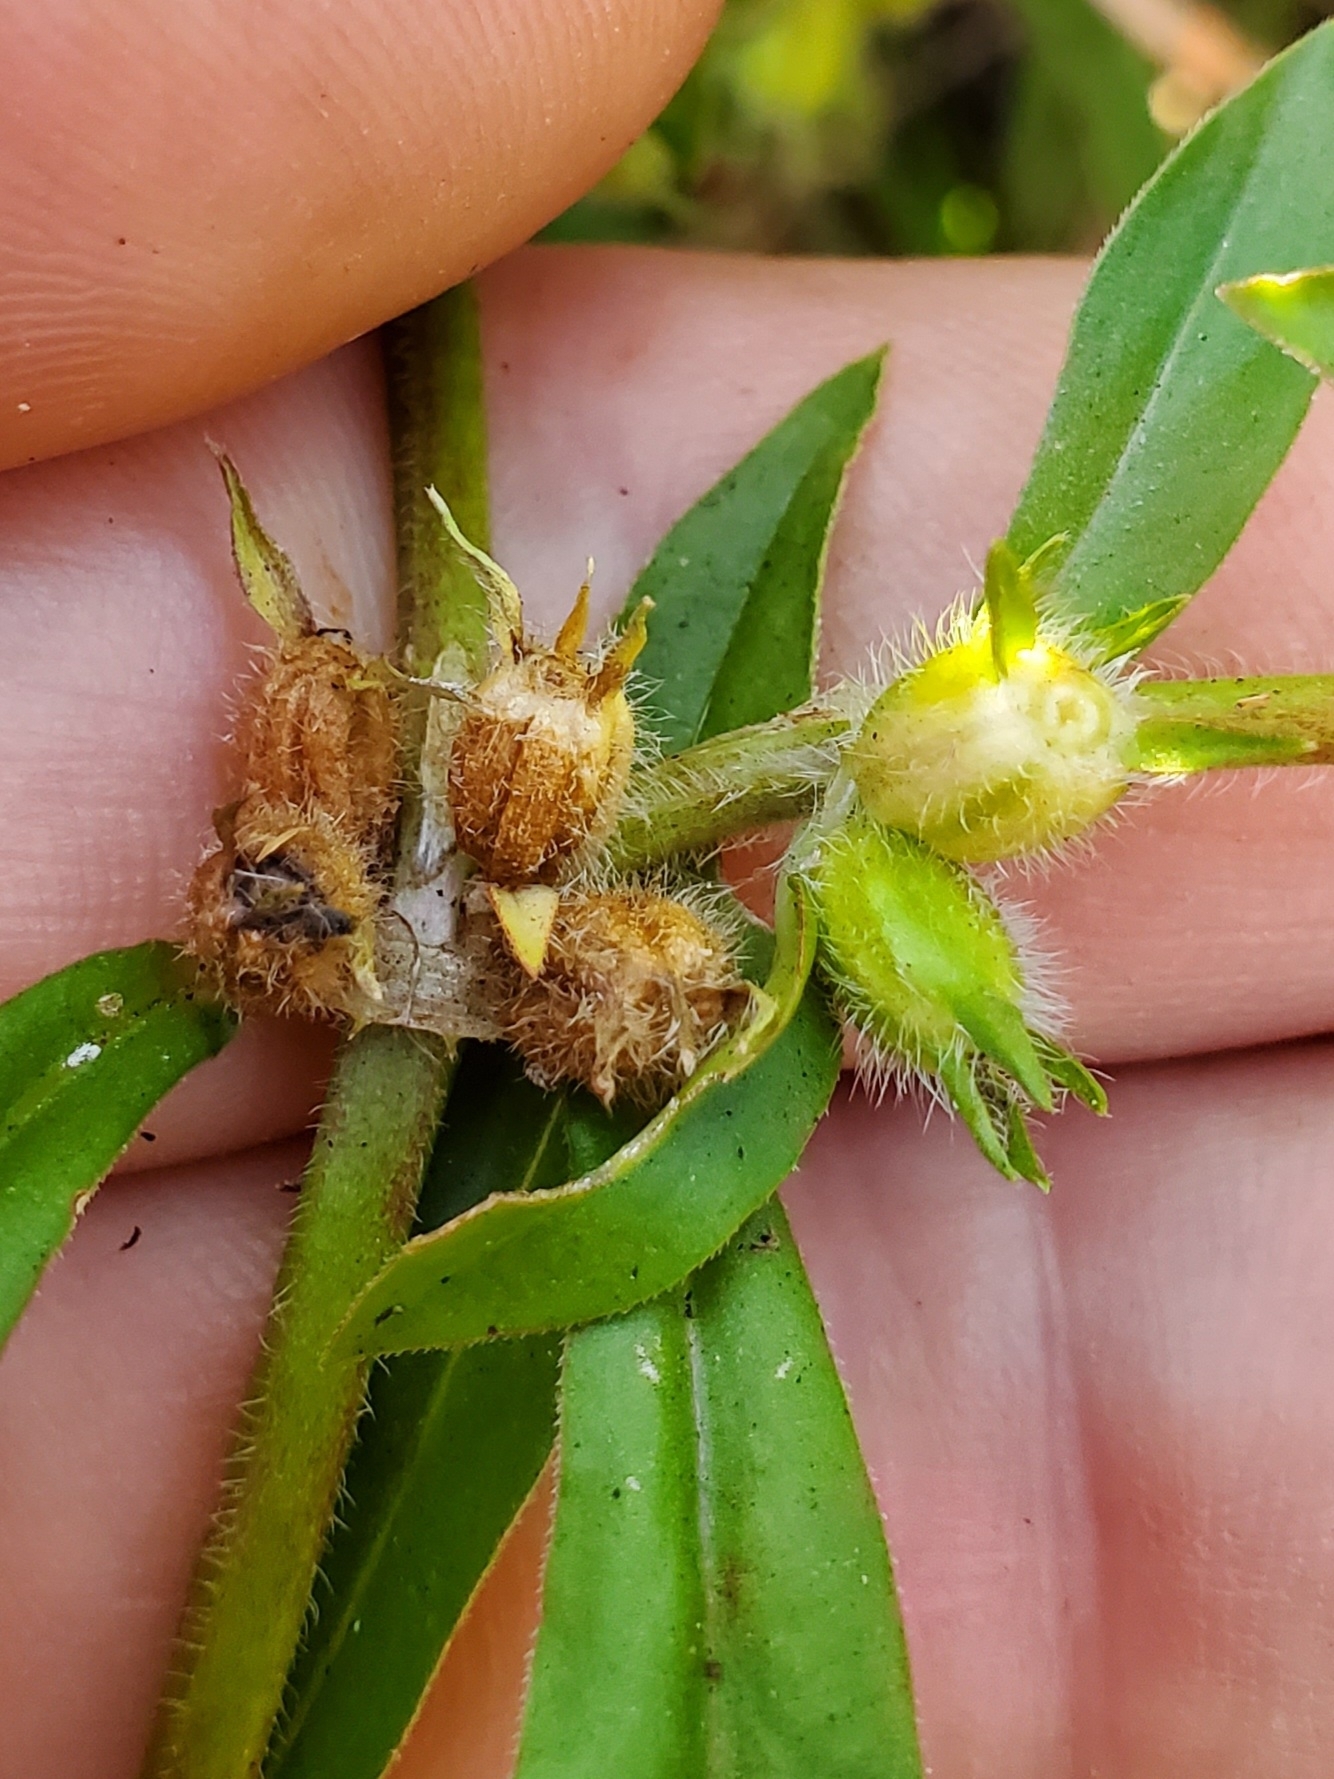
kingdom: Plantae
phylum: Tracheophyta
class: Magnoliopsida
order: Gentianales
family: Rubiaceae
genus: Diodia
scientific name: Diodia virginiana
